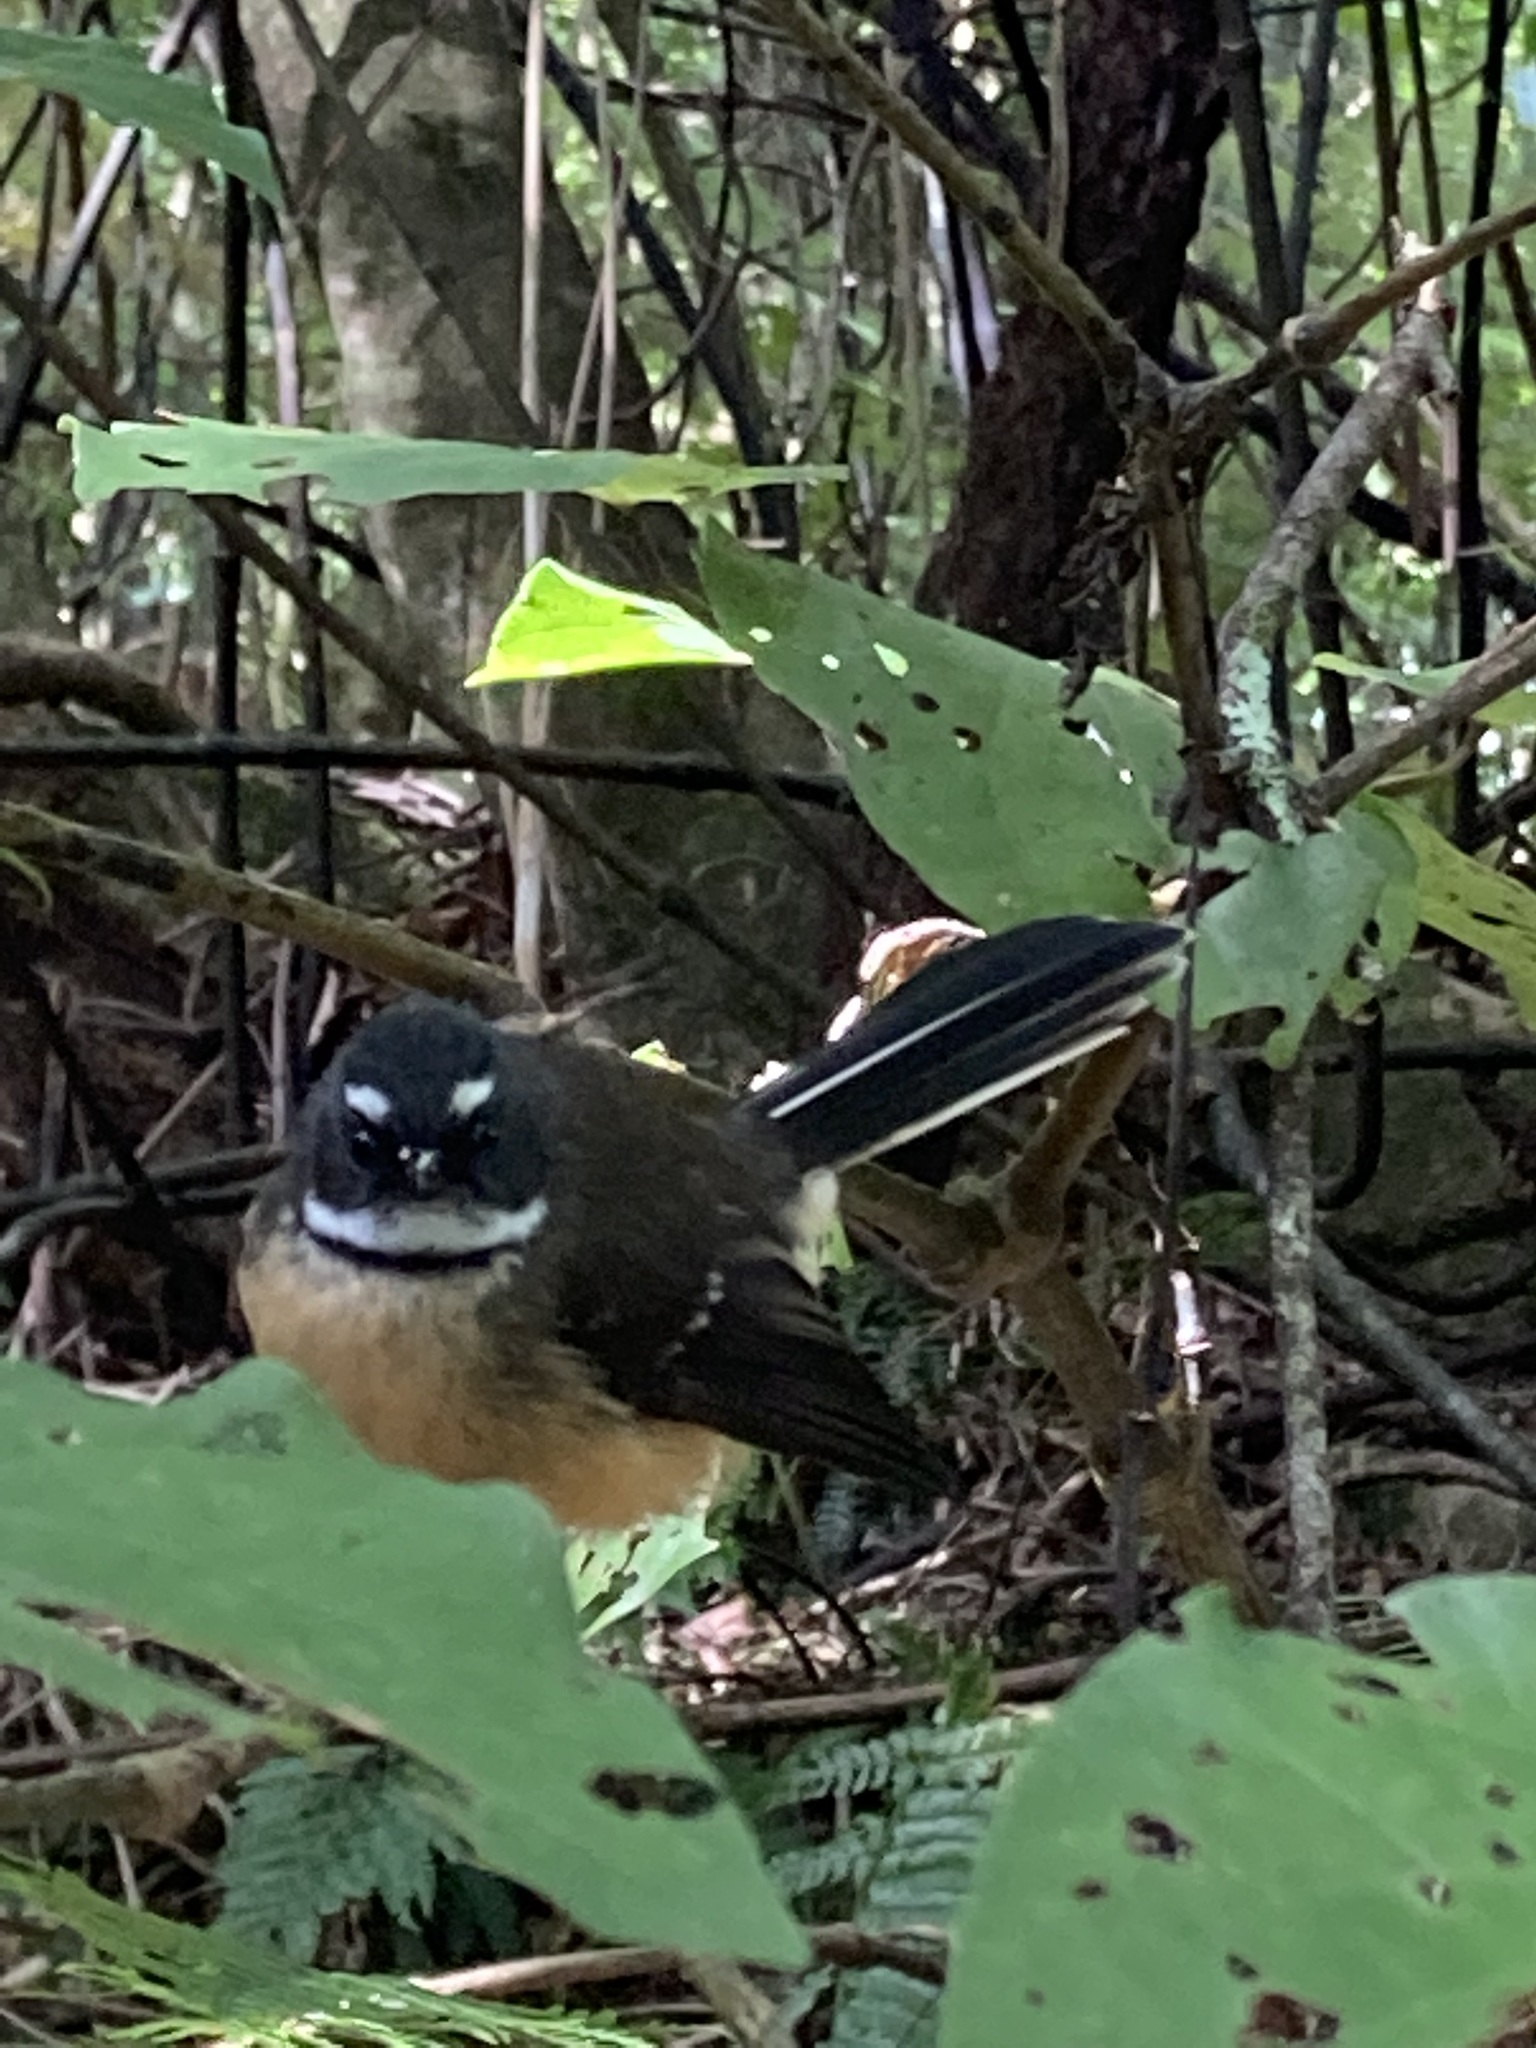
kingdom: Animalia
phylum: Chordata
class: Aves
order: Passeriformes
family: Rhipiduridae
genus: Rhipidura
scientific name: Rhipidura fuliginosa
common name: New zealand fantail
